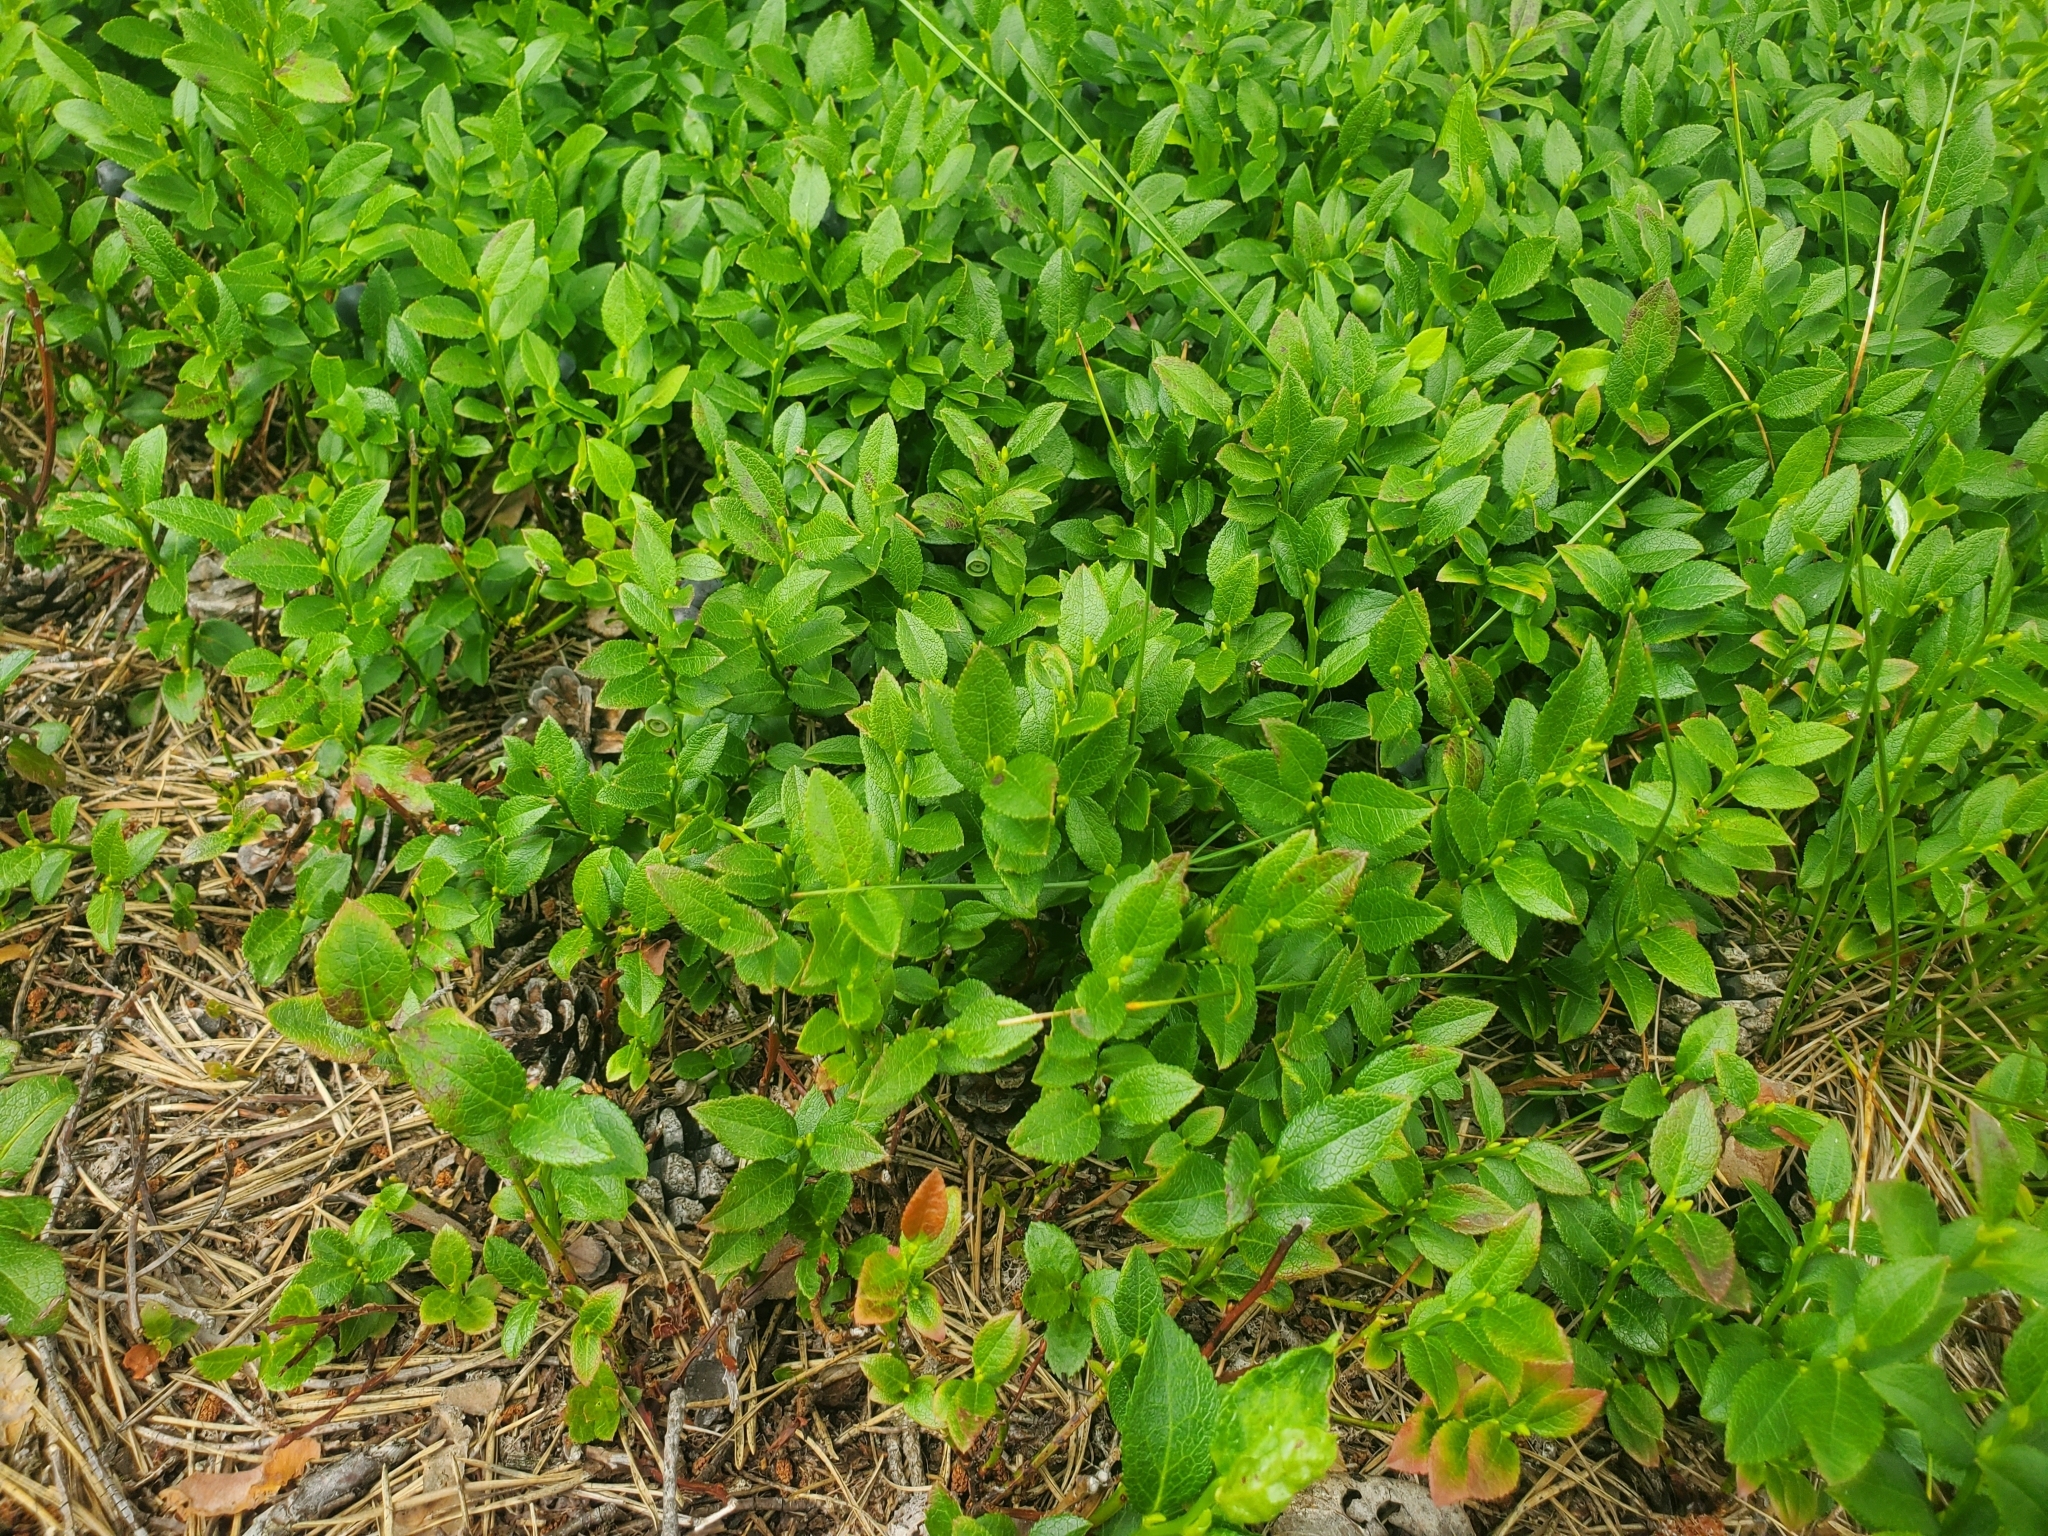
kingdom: Plantae
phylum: Tracheophyta
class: Magnoliopsida
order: Ericales
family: Ericaceae
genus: Vaccinium
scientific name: Vaccinium myrtillus
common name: Bilberry
